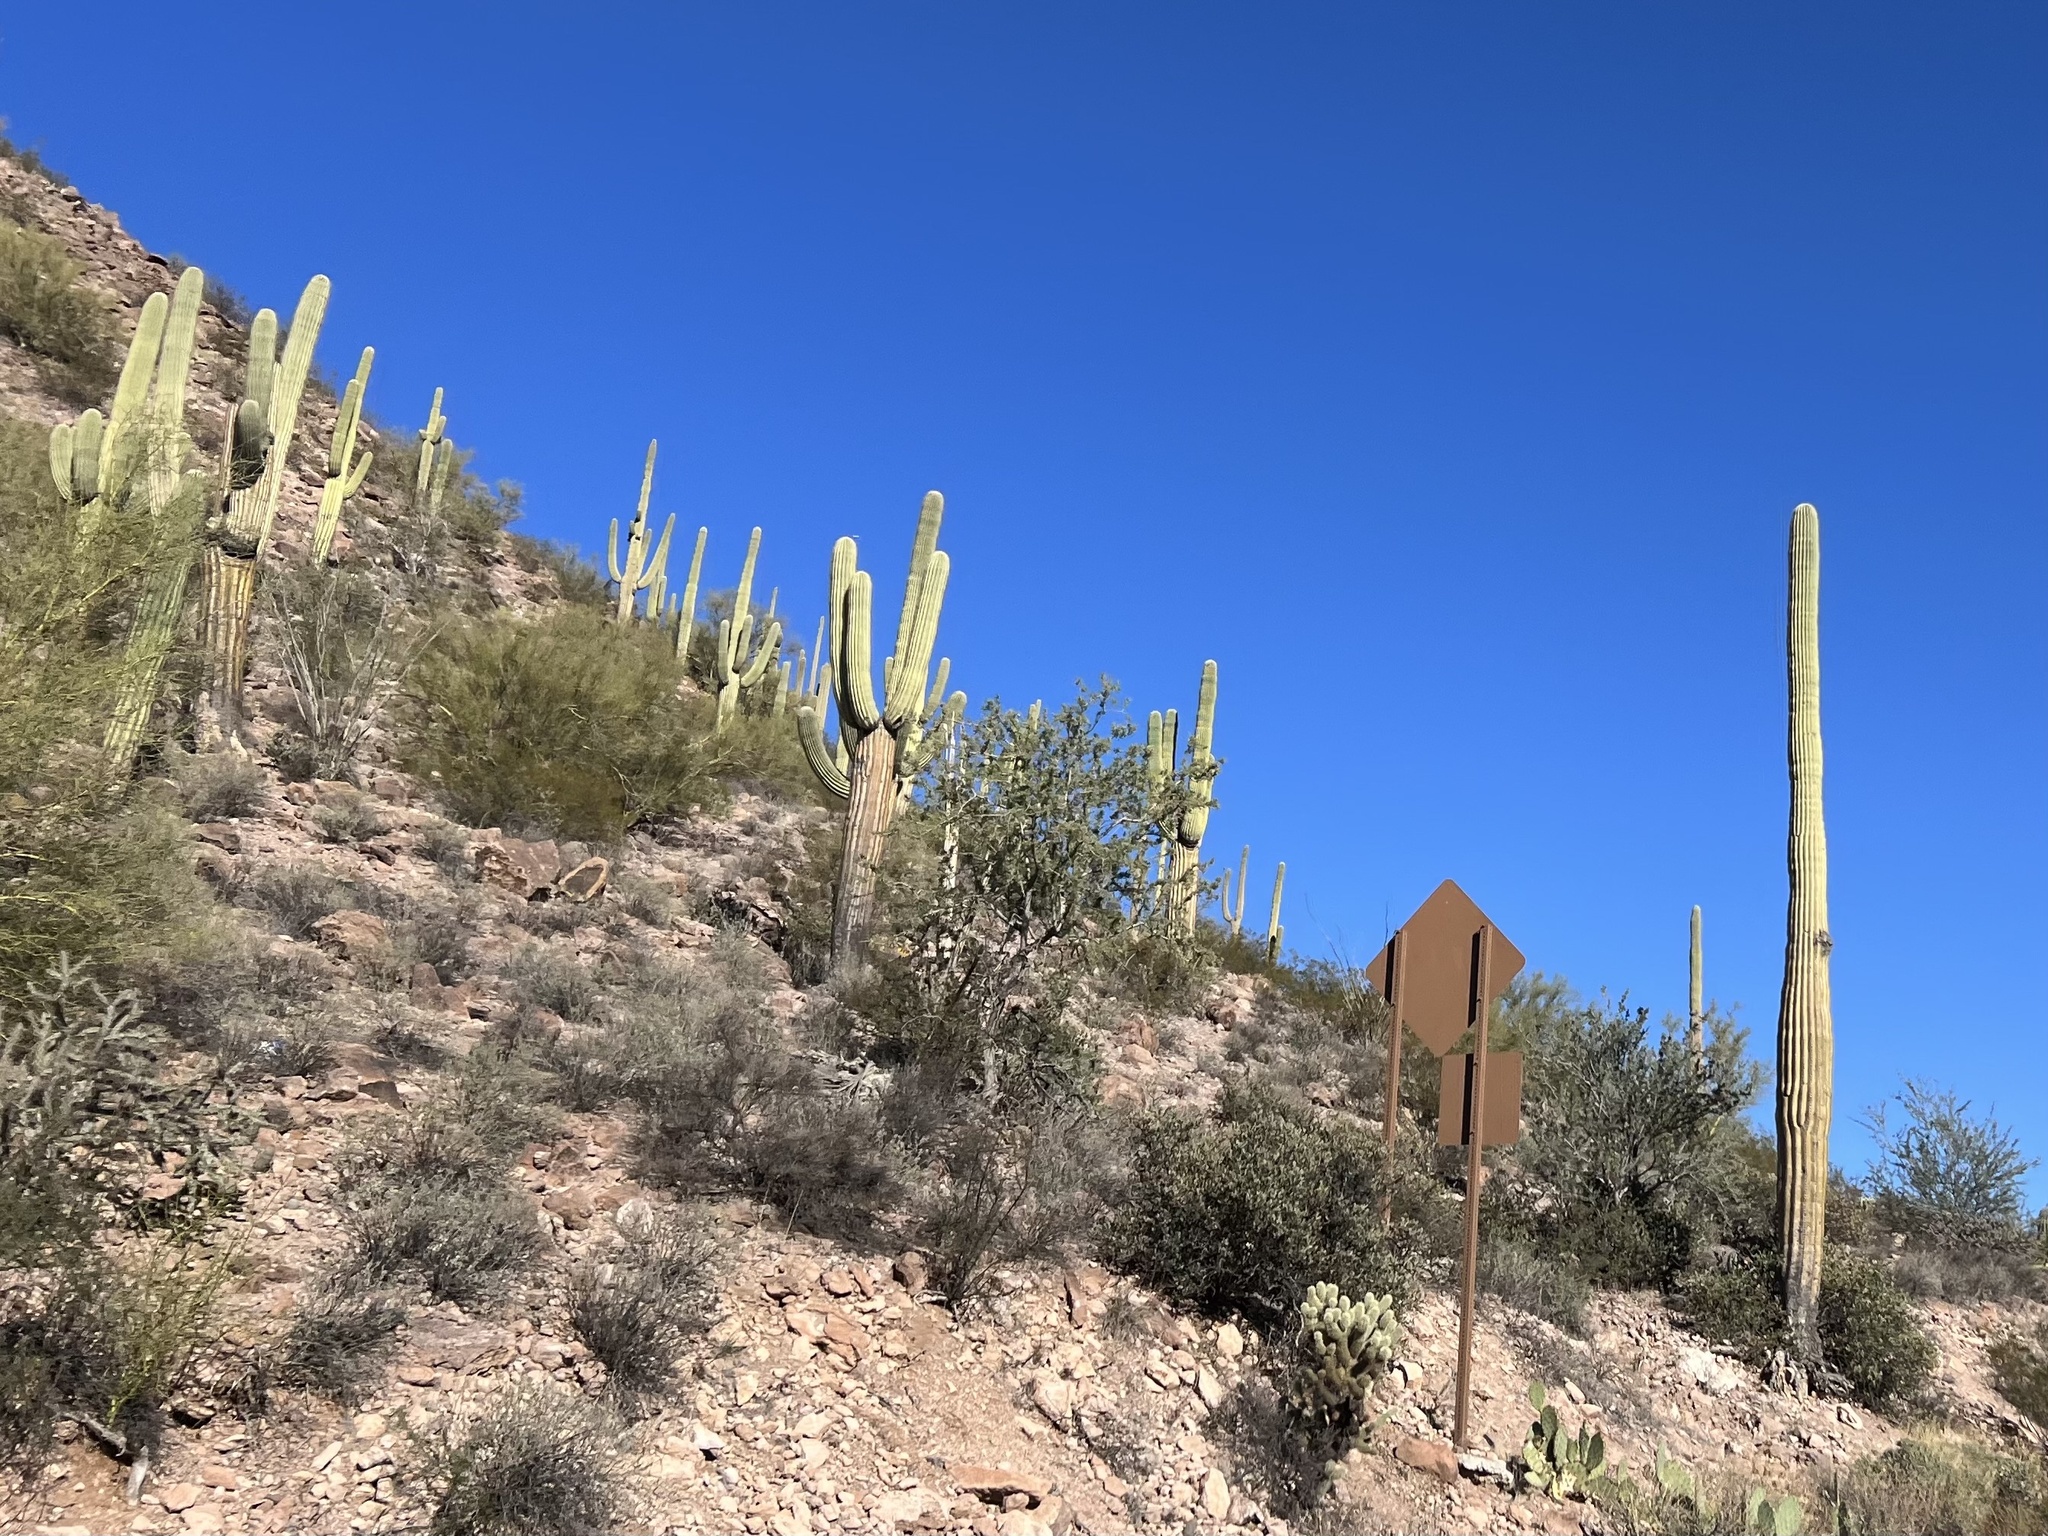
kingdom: Plantae
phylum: Tracheophyta
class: Magnoliopsida
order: Caryophyllales
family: Cactaceae
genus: Carnegiea
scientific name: Carnegiea gigantea
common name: Saguaro
